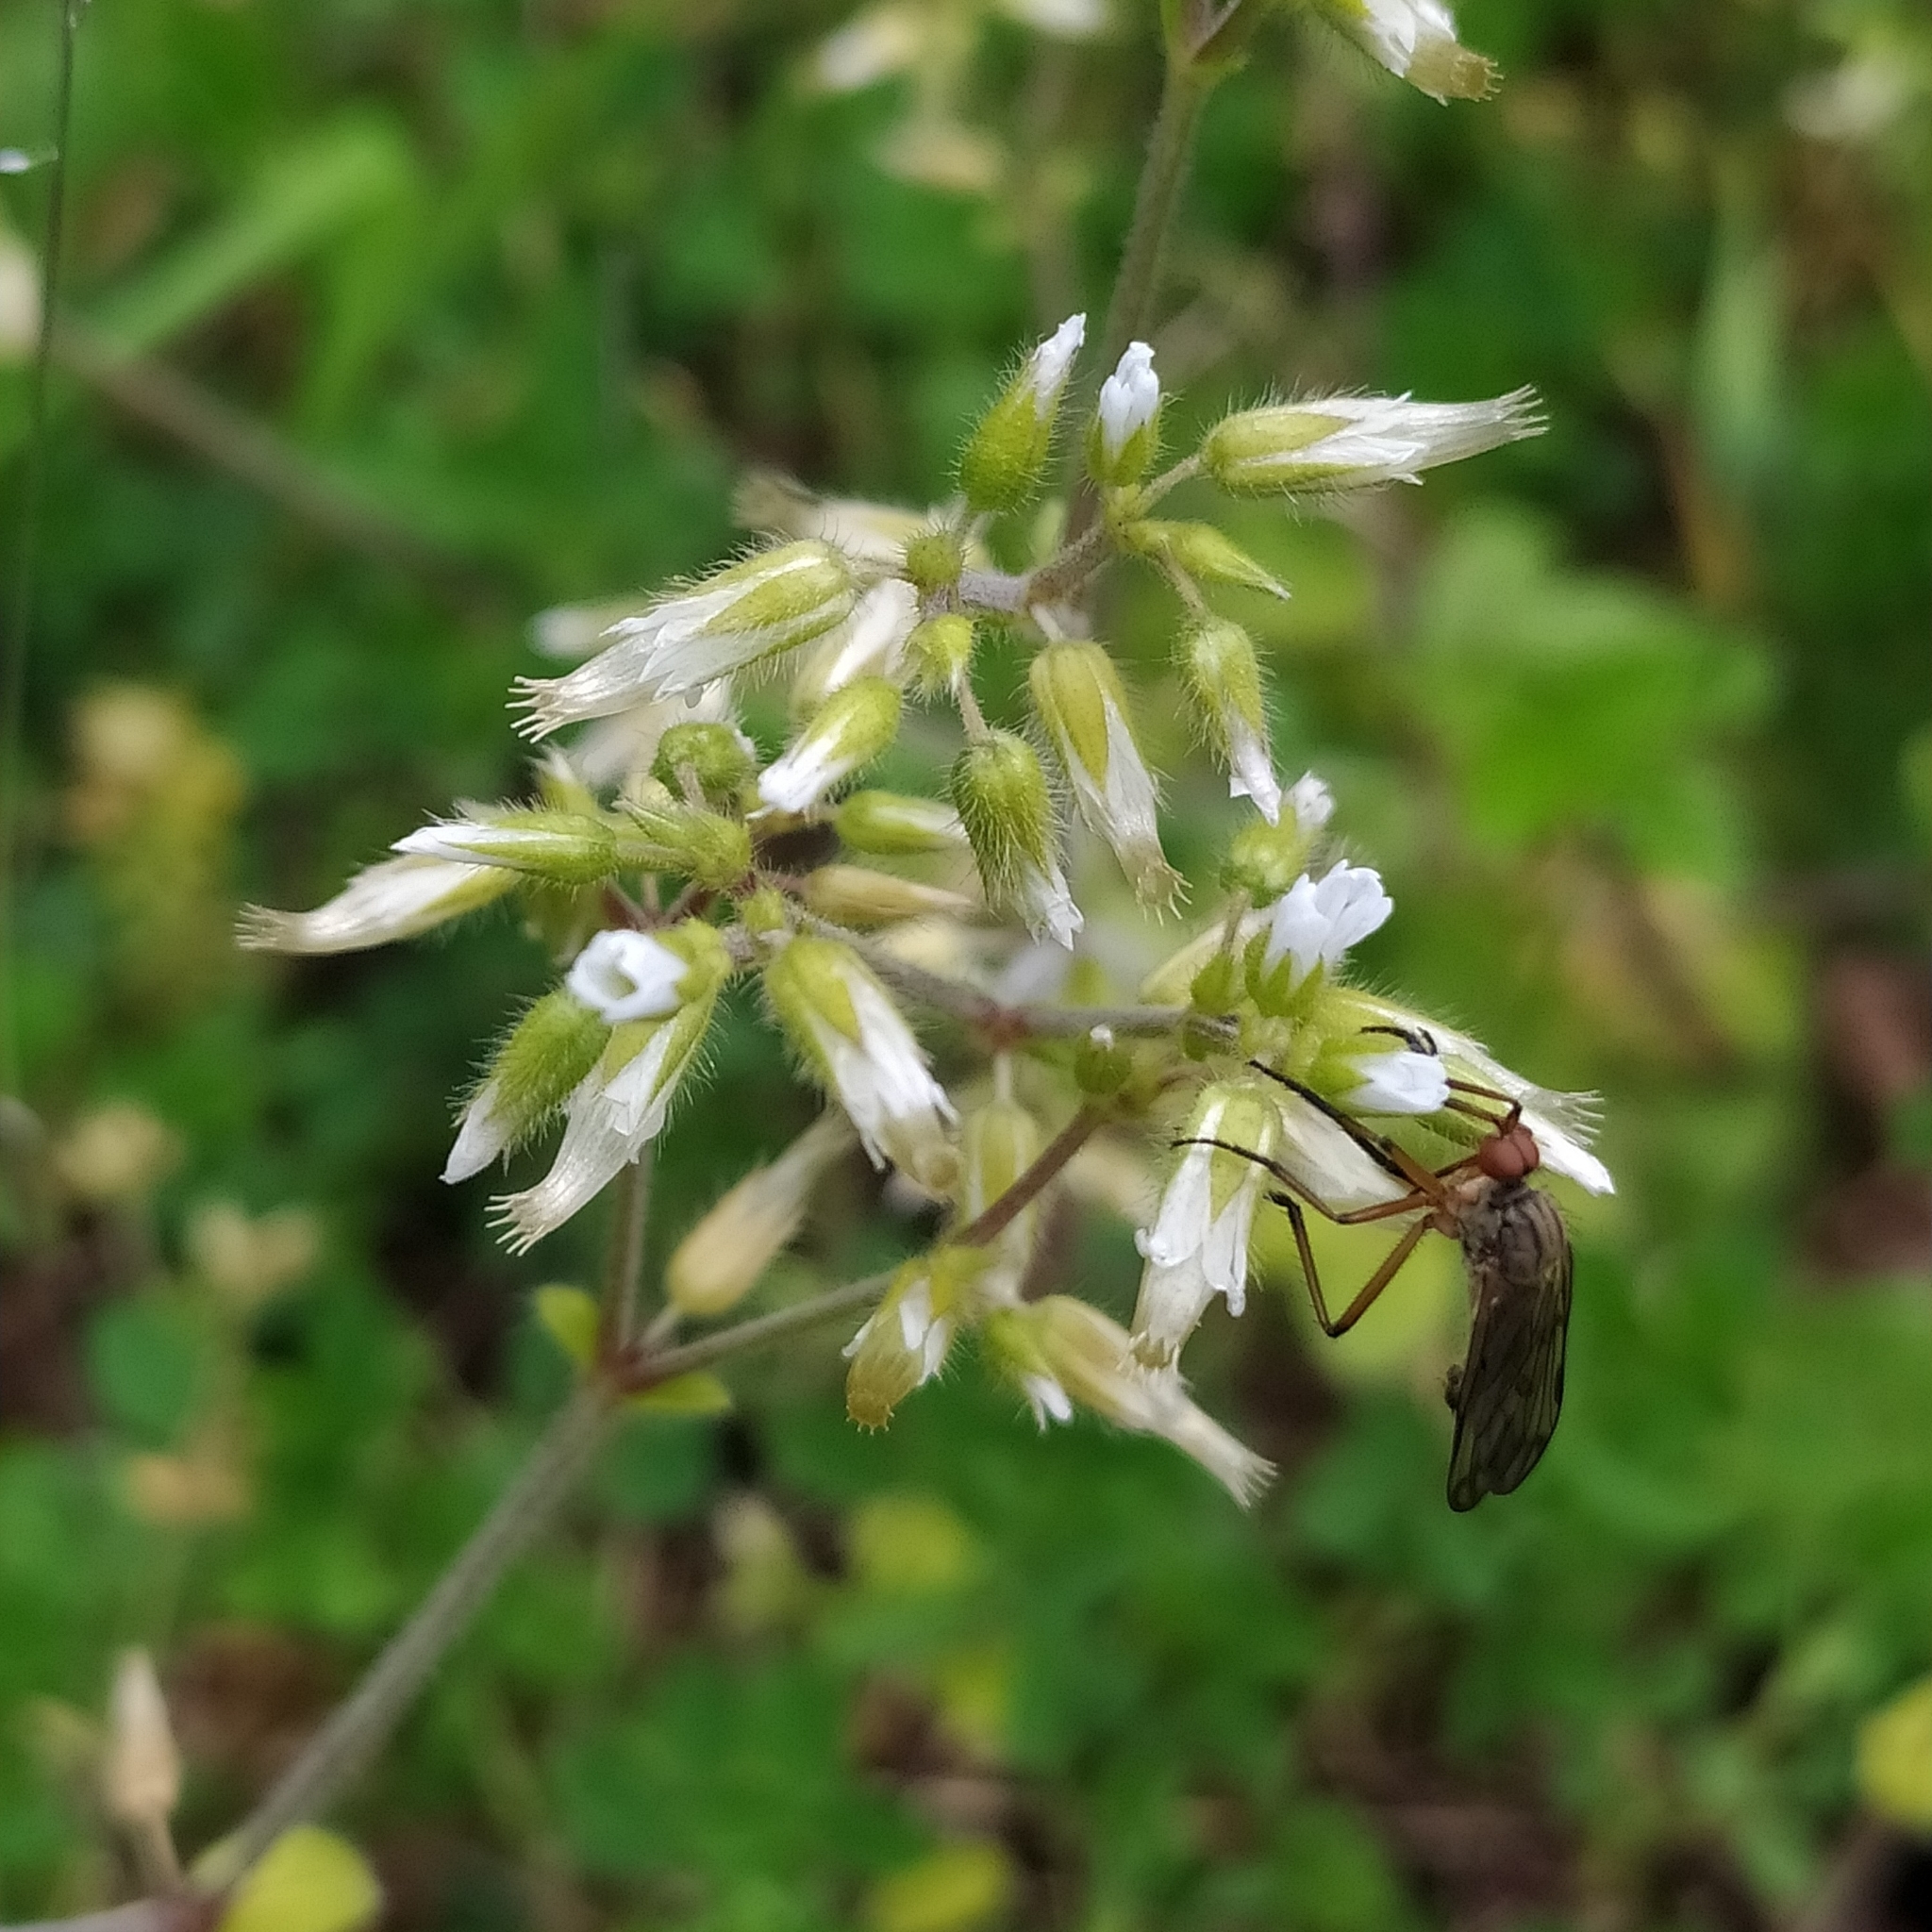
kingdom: Plantae
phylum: Tracheophyta
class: Magnoliopsida
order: Caryophyllales
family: Caryophyllaceae
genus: Cerastium
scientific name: Cerastium glomeratum
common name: Sticky chickweed
